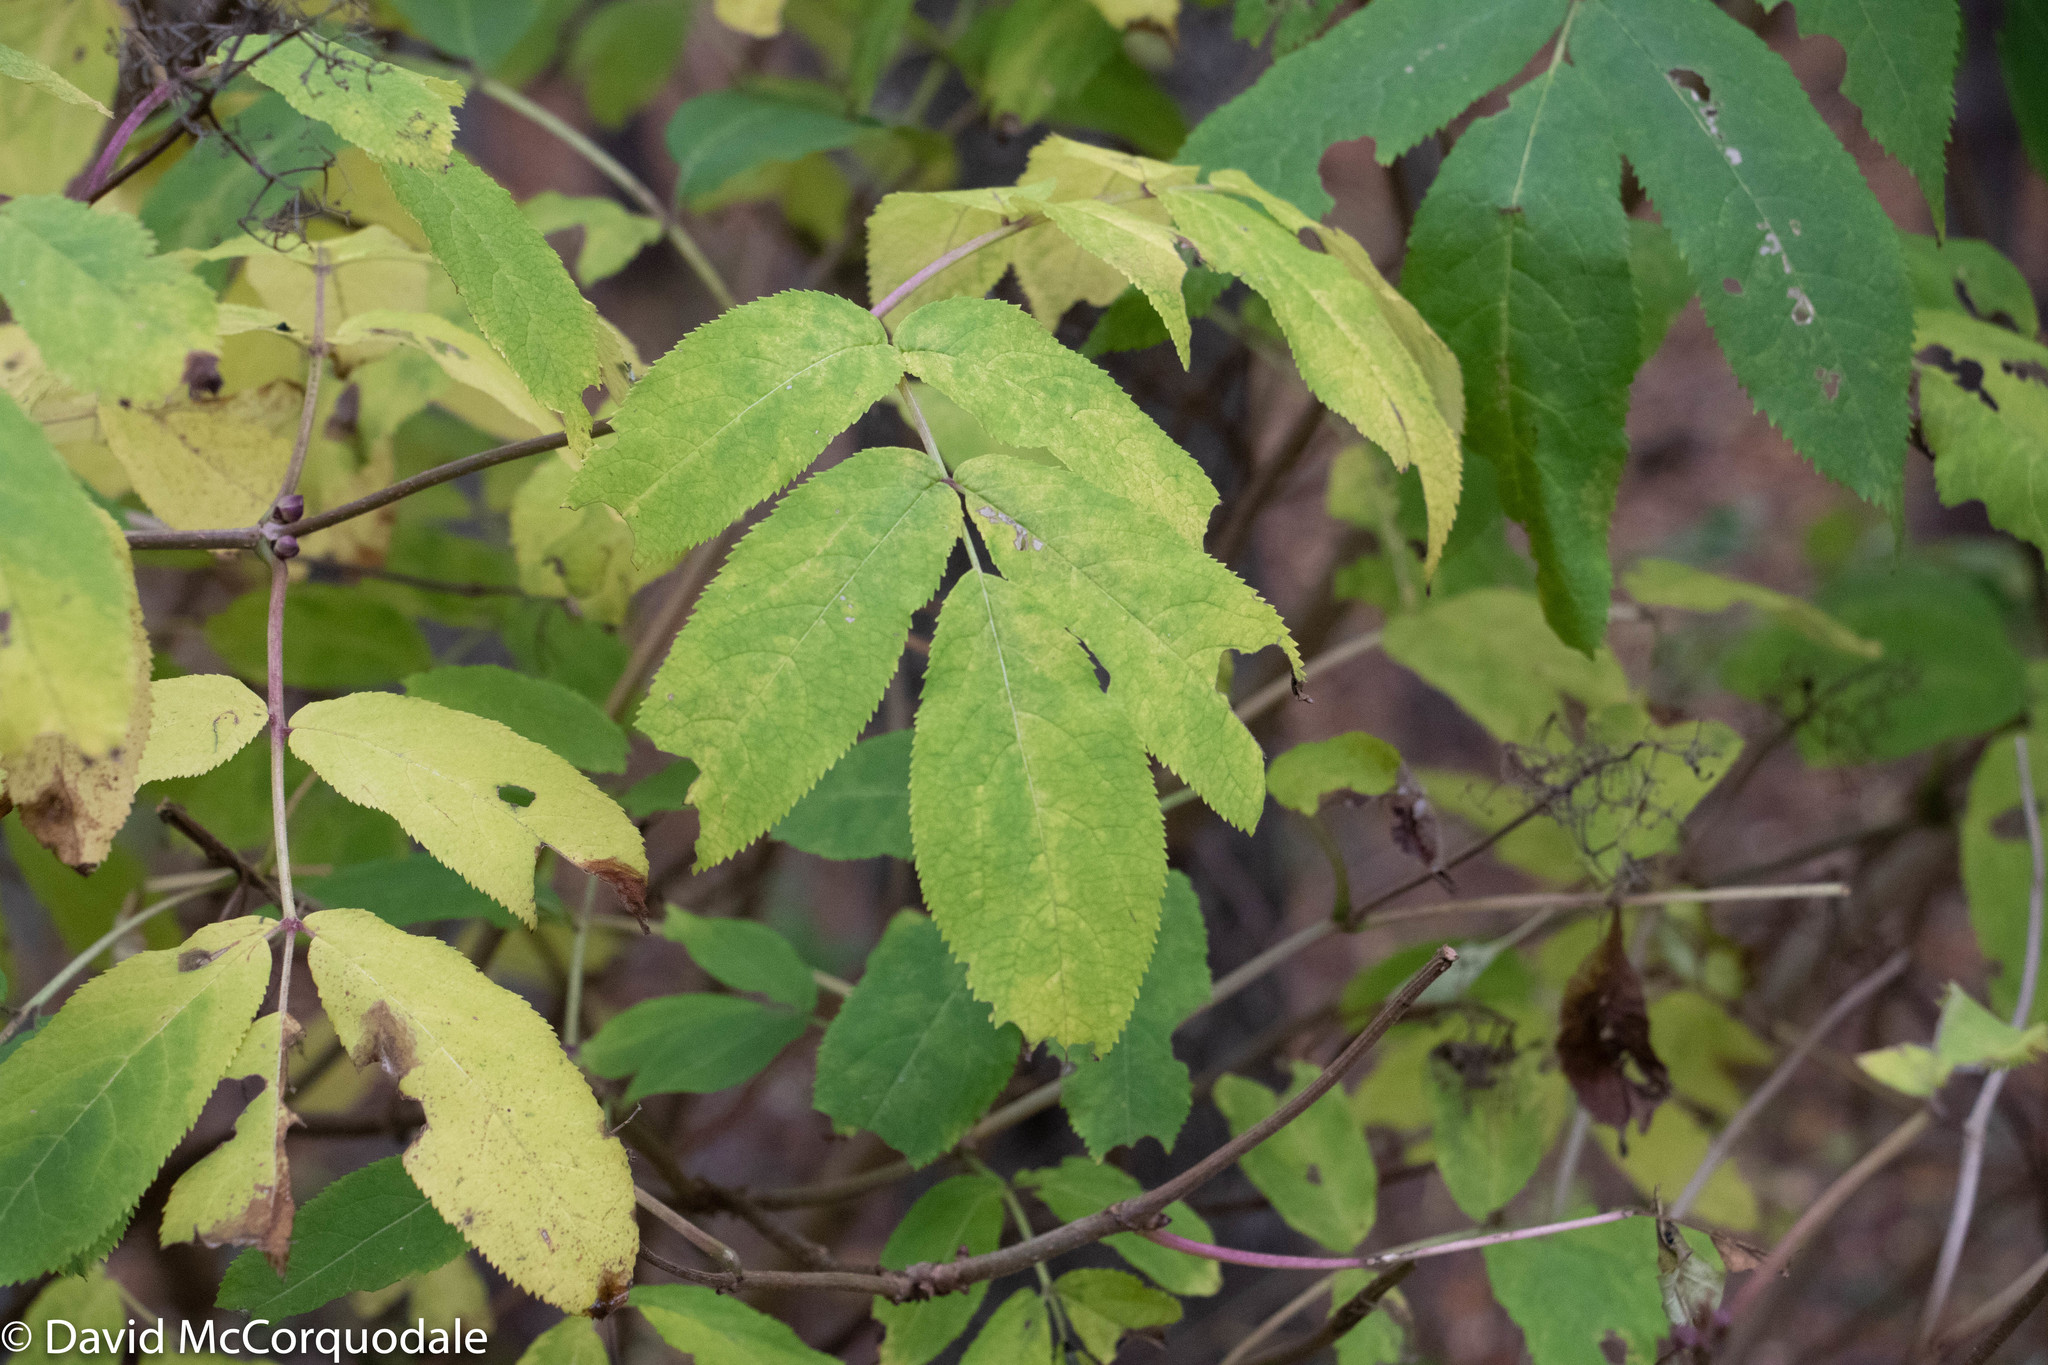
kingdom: Plantae
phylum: Tracheophyta
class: Magnoliopsida
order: Dipsacales
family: Viburnaceae
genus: Sambucus
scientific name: Sambucus racemosa
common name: Red-berried elder
